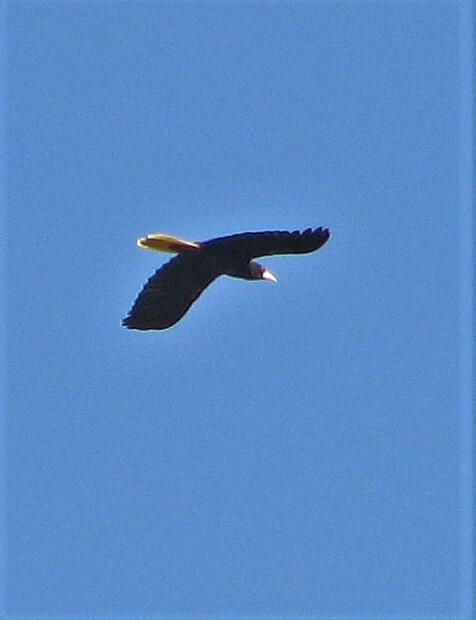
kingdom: Animalia
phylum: Chordata
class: Aves
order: Passeriformes
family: Icteridae
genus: Psarocolius
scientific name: Psarocolius decumanus
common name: Crested oropendola
